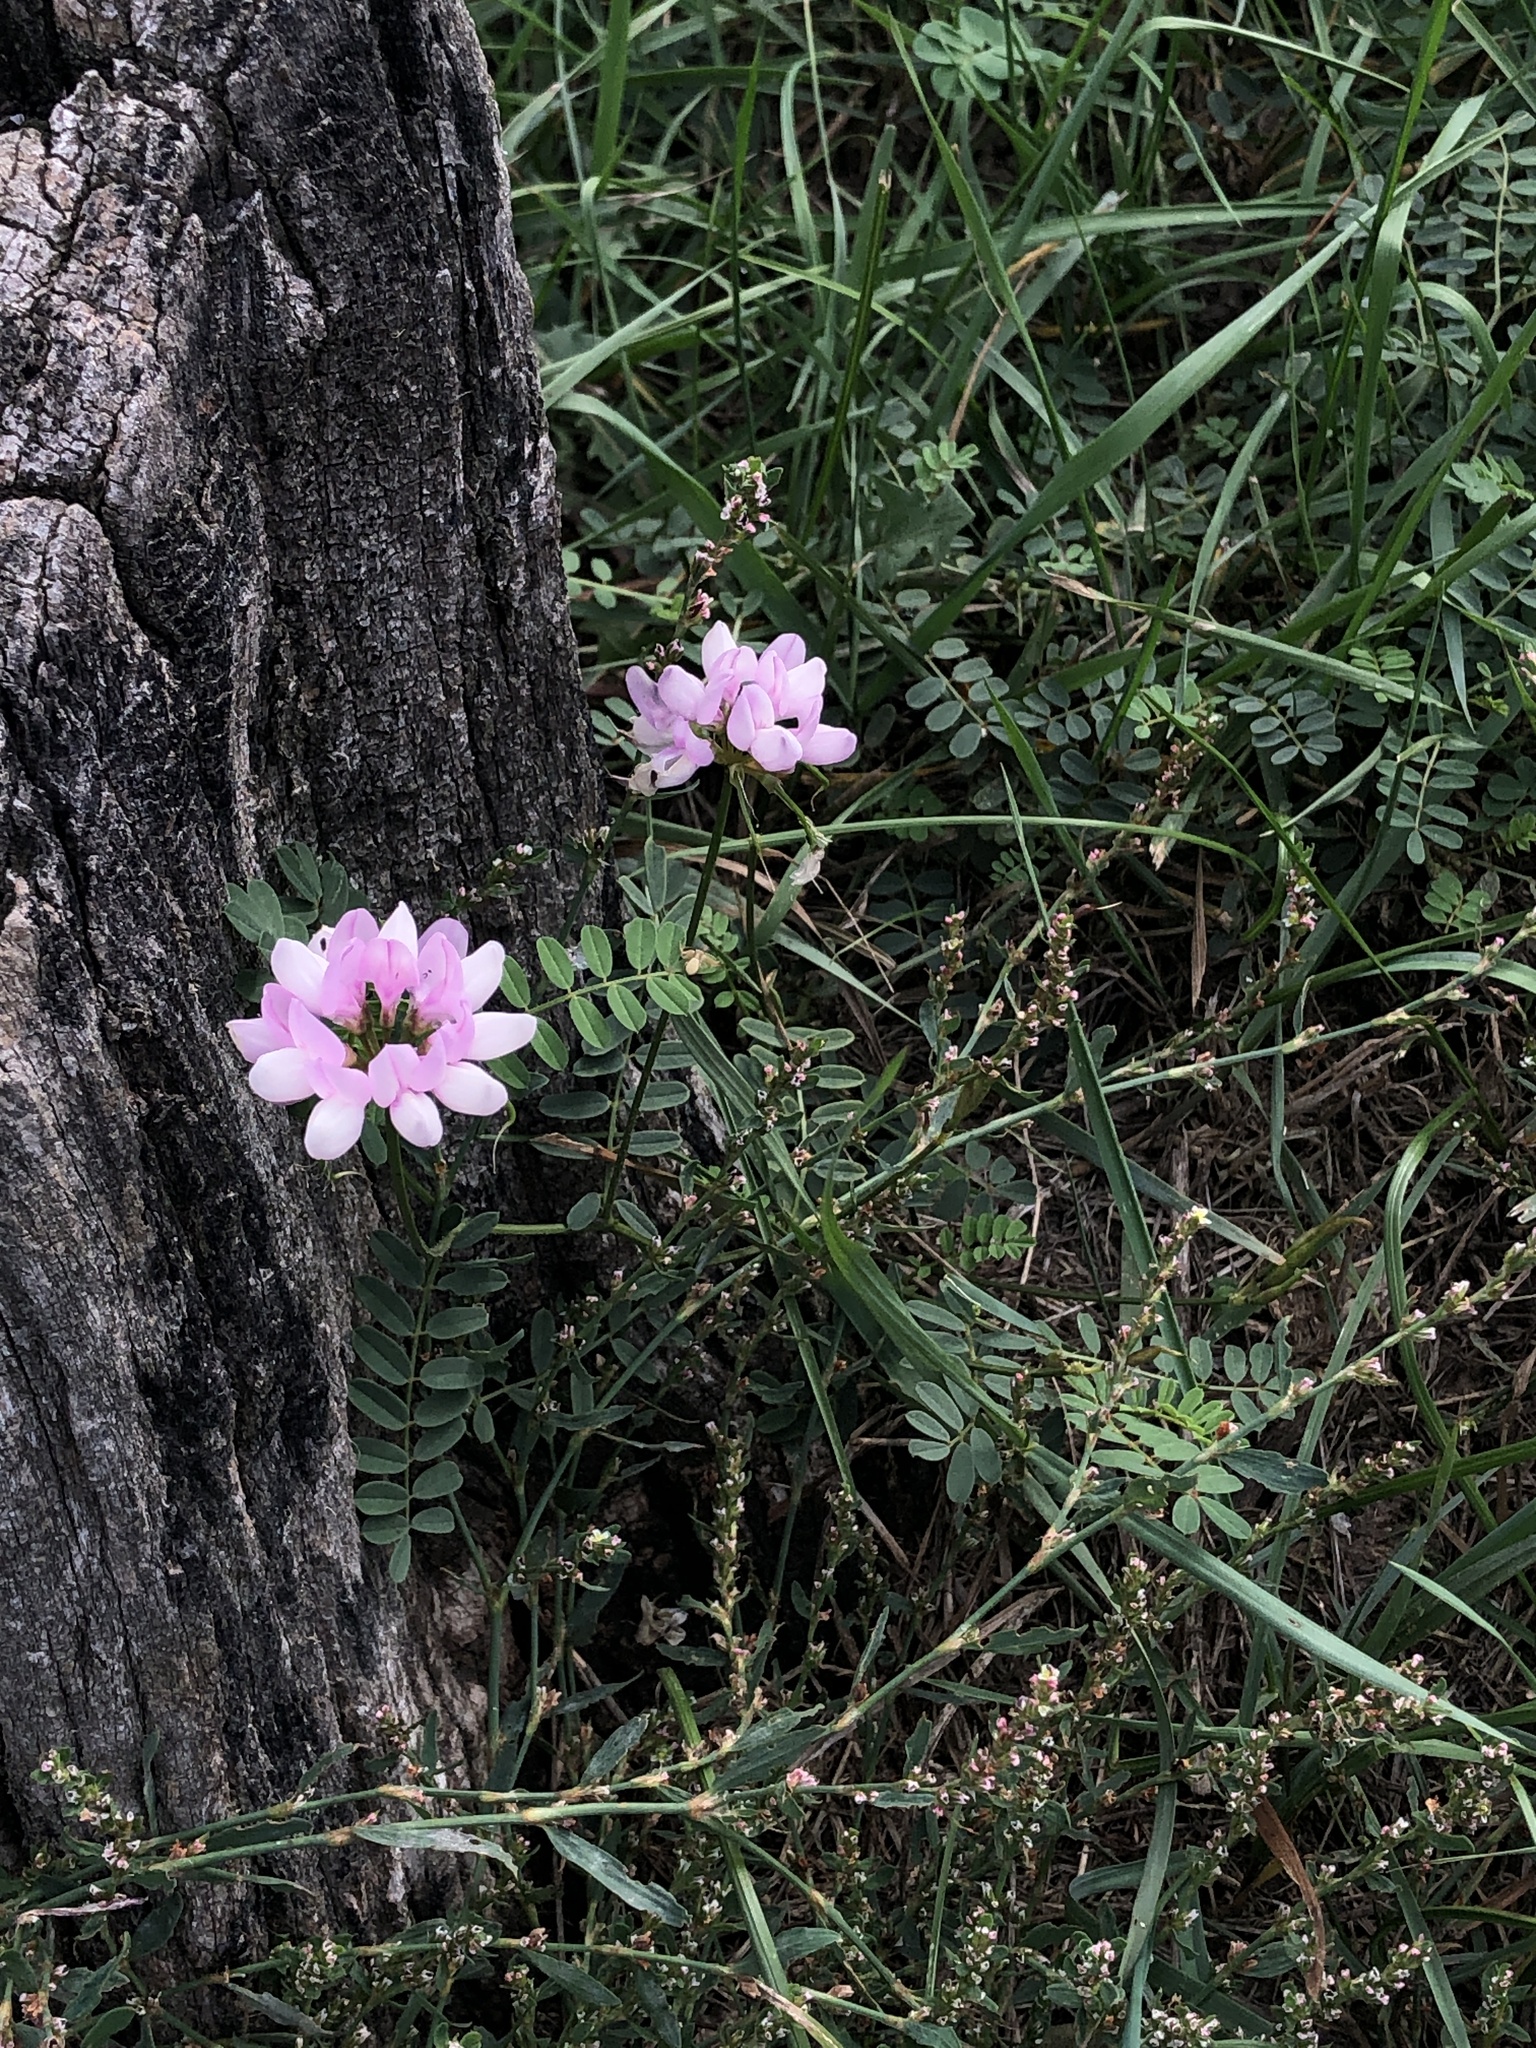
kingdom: Plantae
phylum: Tracheophyta
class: Magnoliopsida
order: Fabales
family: Fabaceae
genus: Coronilla
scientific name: Coronilla varia
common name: Crownvetch
